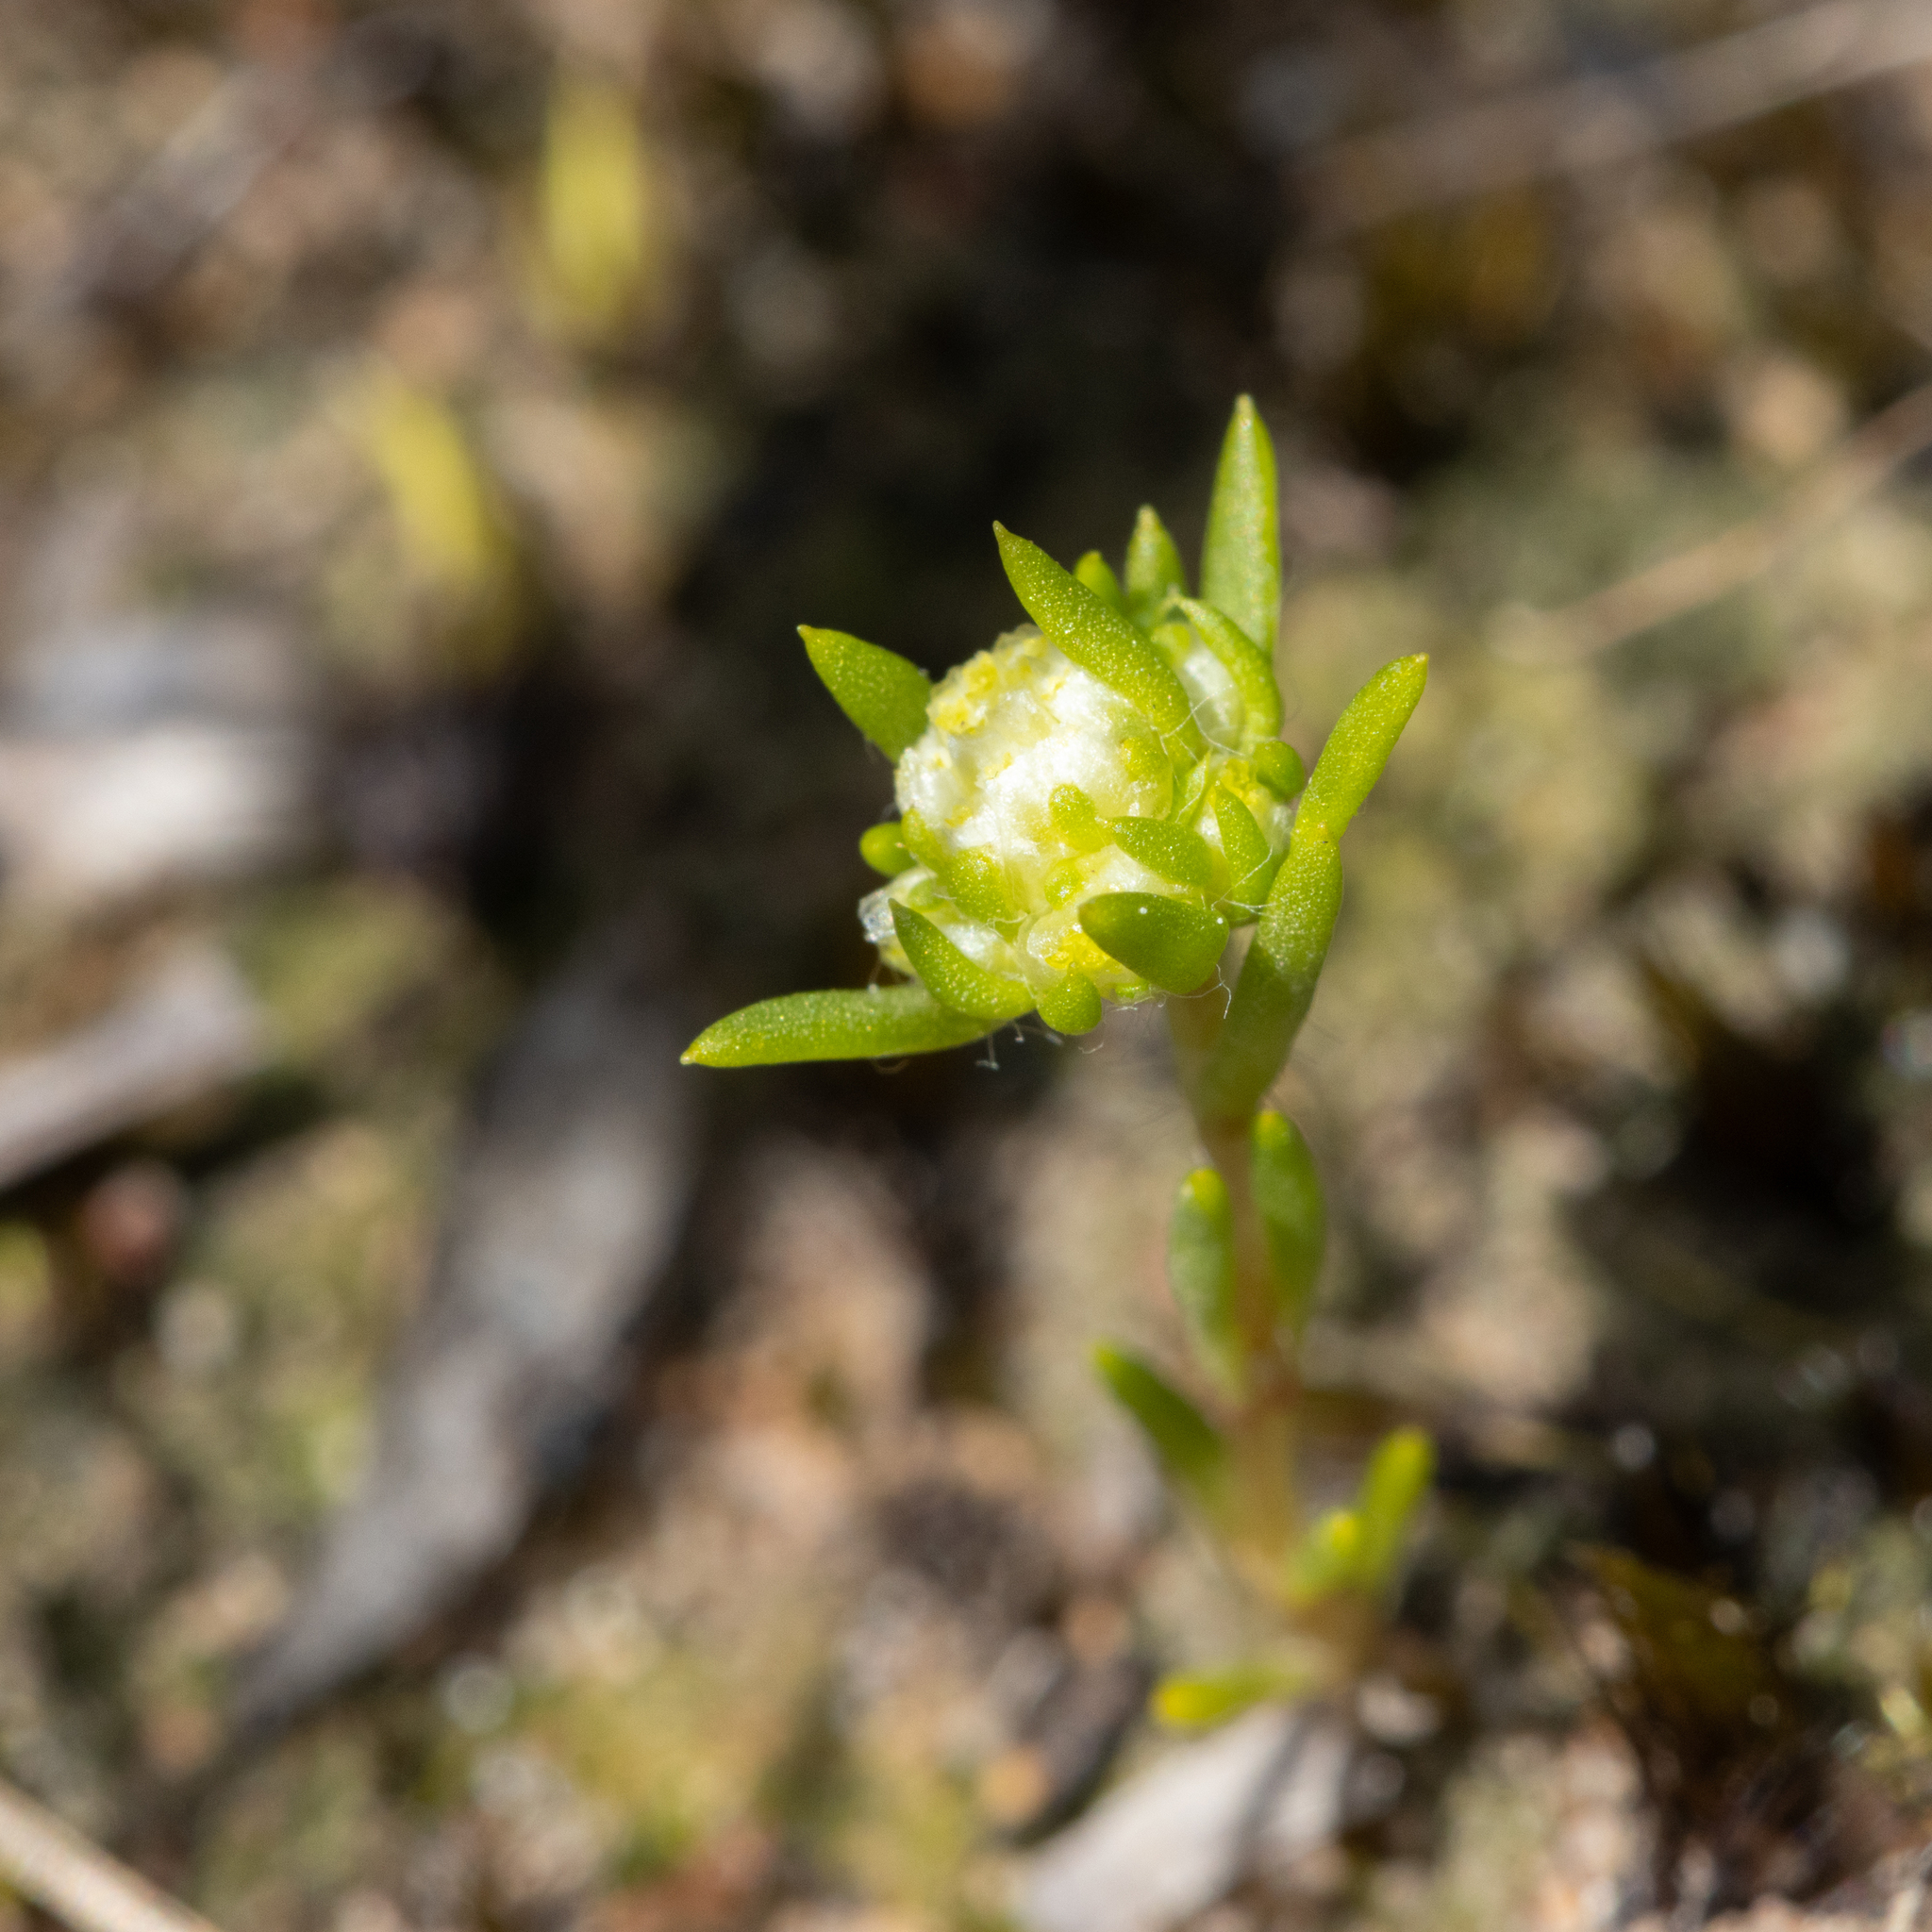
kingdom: Plantae
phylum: Tracheophyta
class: Magnoliopsida
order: Asterales
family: Asteraceae
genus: Siloxerus
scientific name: Siloxerus multiflorus
